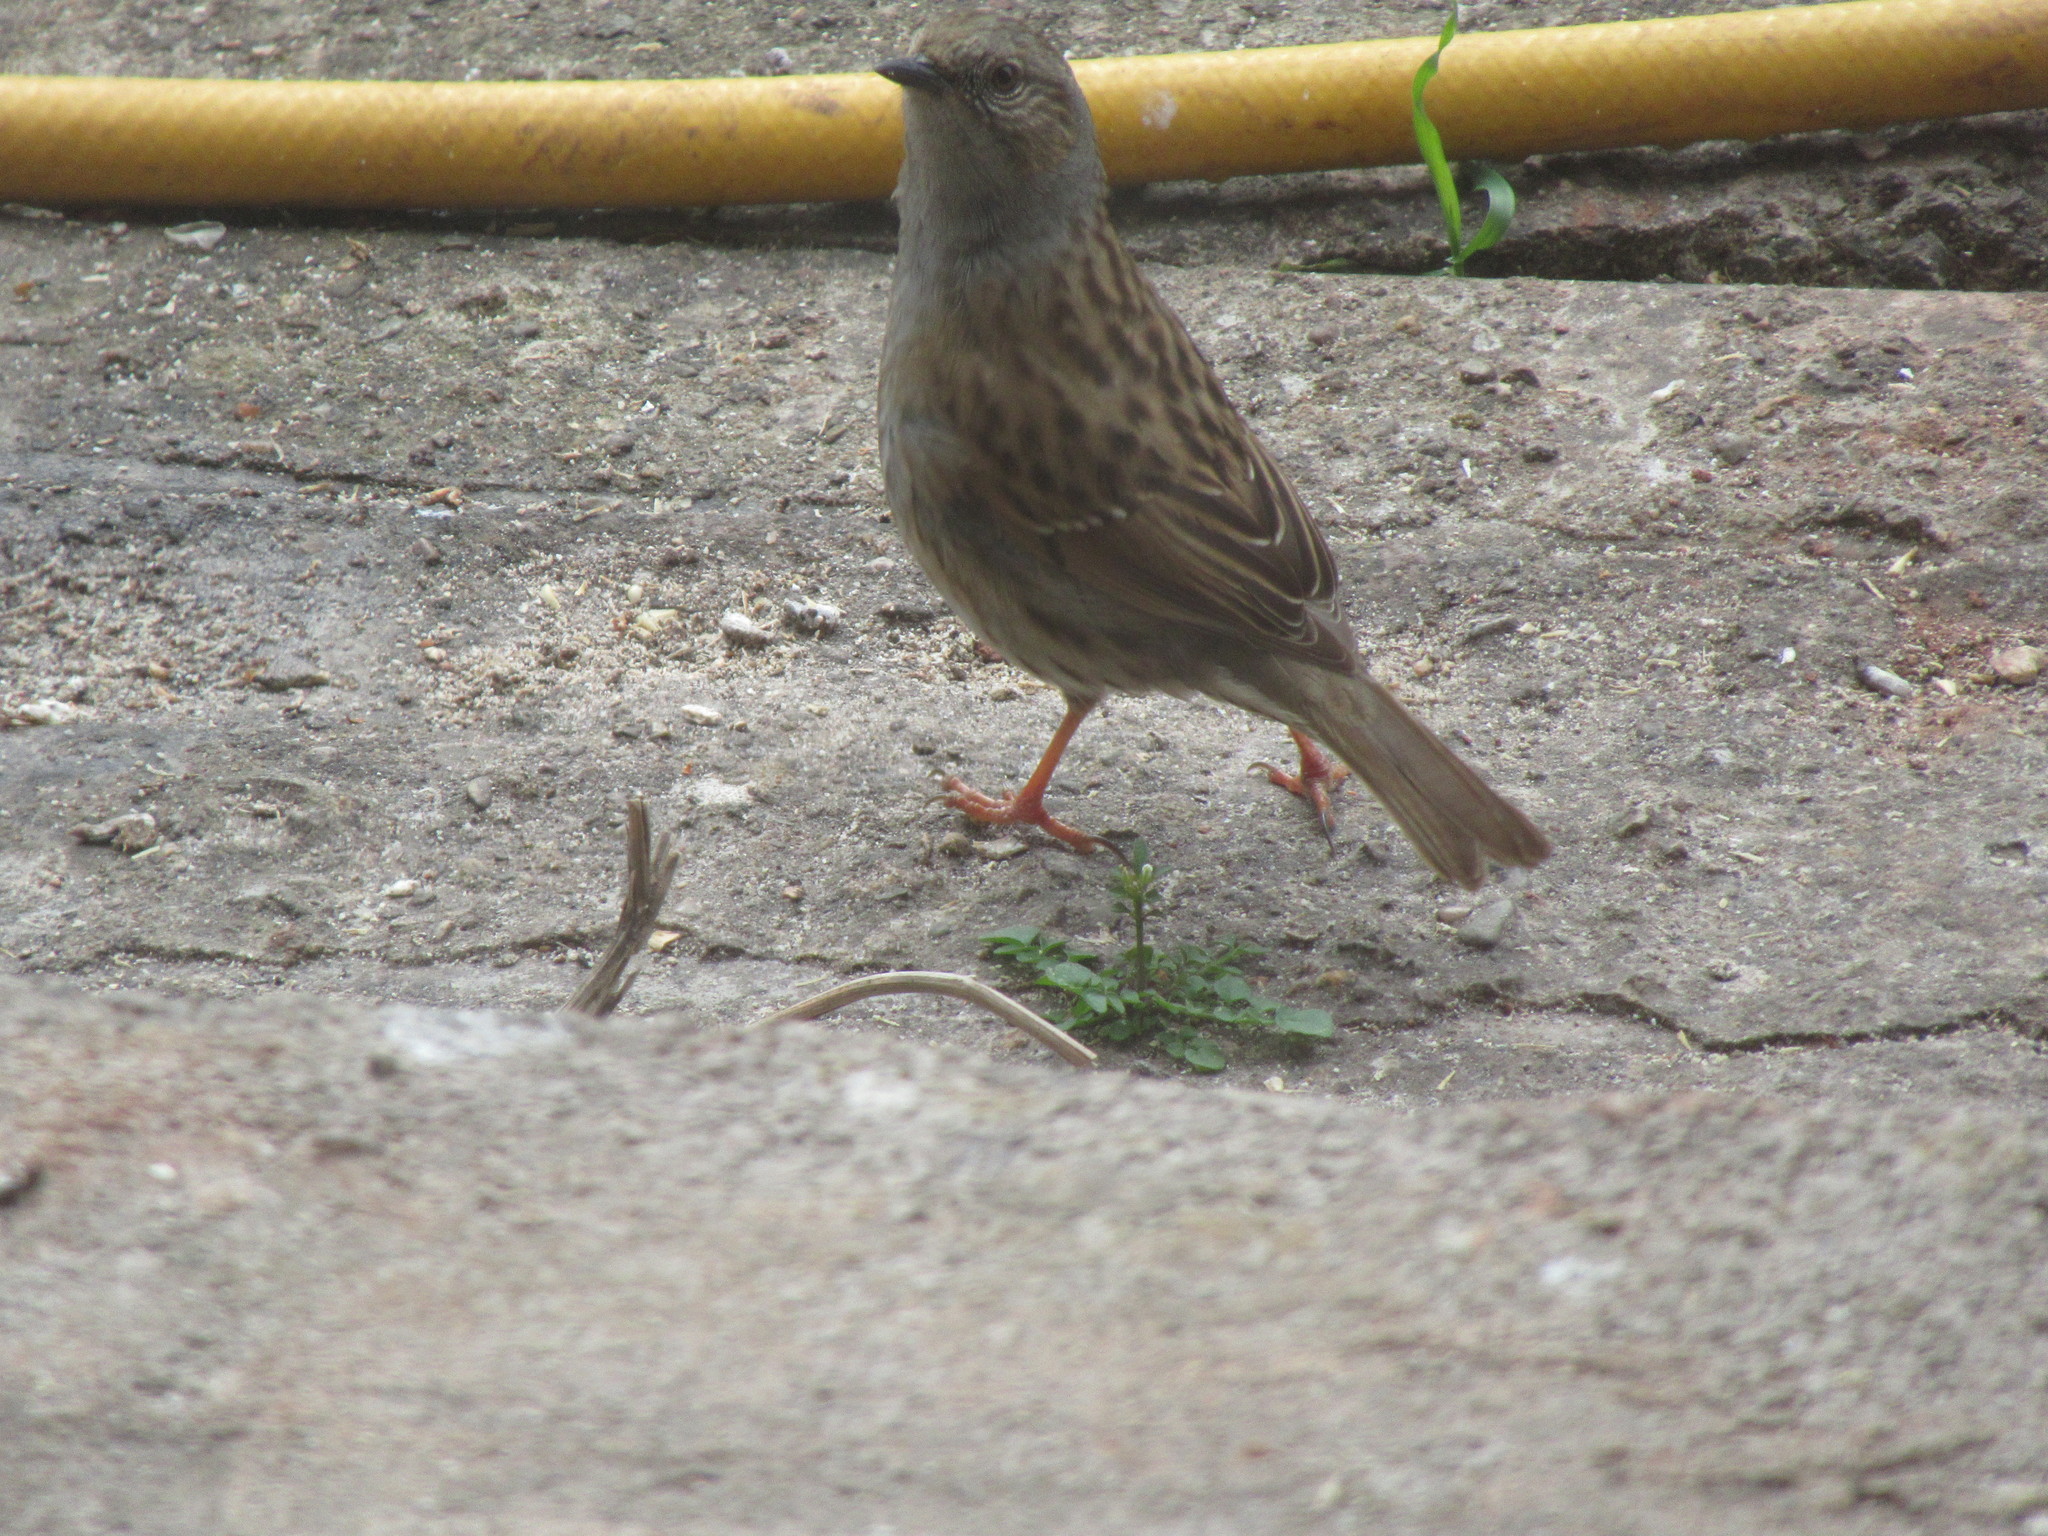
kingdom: Animalia
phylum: Chordata
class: Aves
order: Passeriformes
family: Prunellidae
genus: Prunella
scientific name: Prunella modularis
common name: Dunnock
